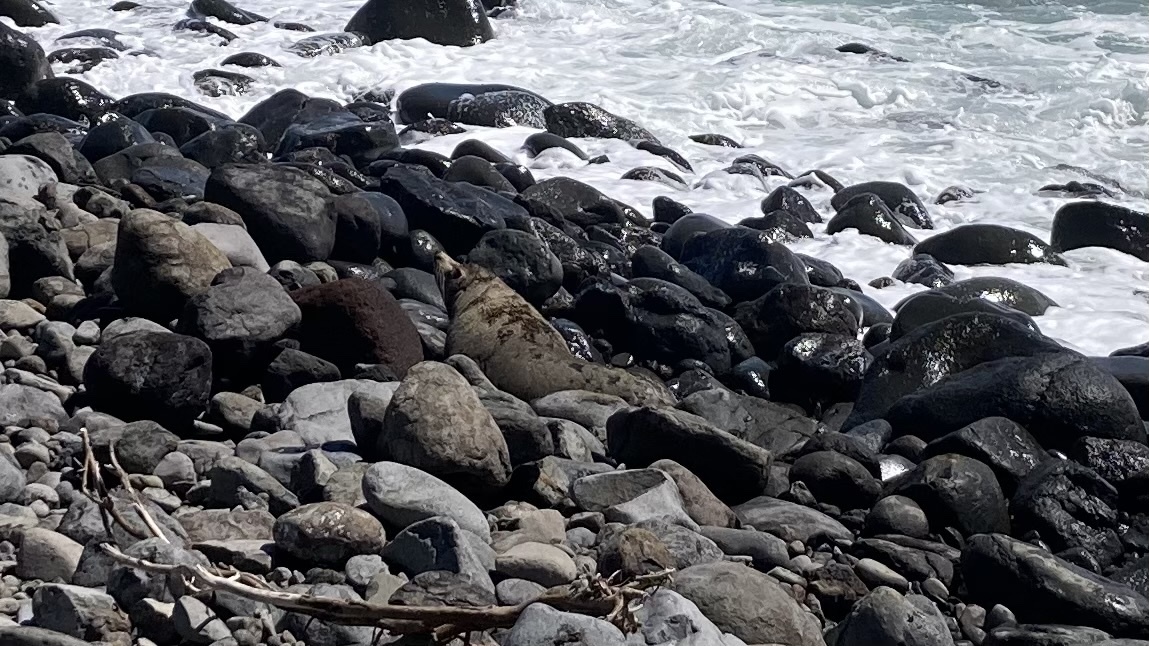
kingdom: Animalia
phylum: Chordata
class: Mammalia
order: Carnivora
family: Otariidae
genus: Arctocephalus
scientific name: Arctocephalus forsteri
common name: New zealand fur seal
